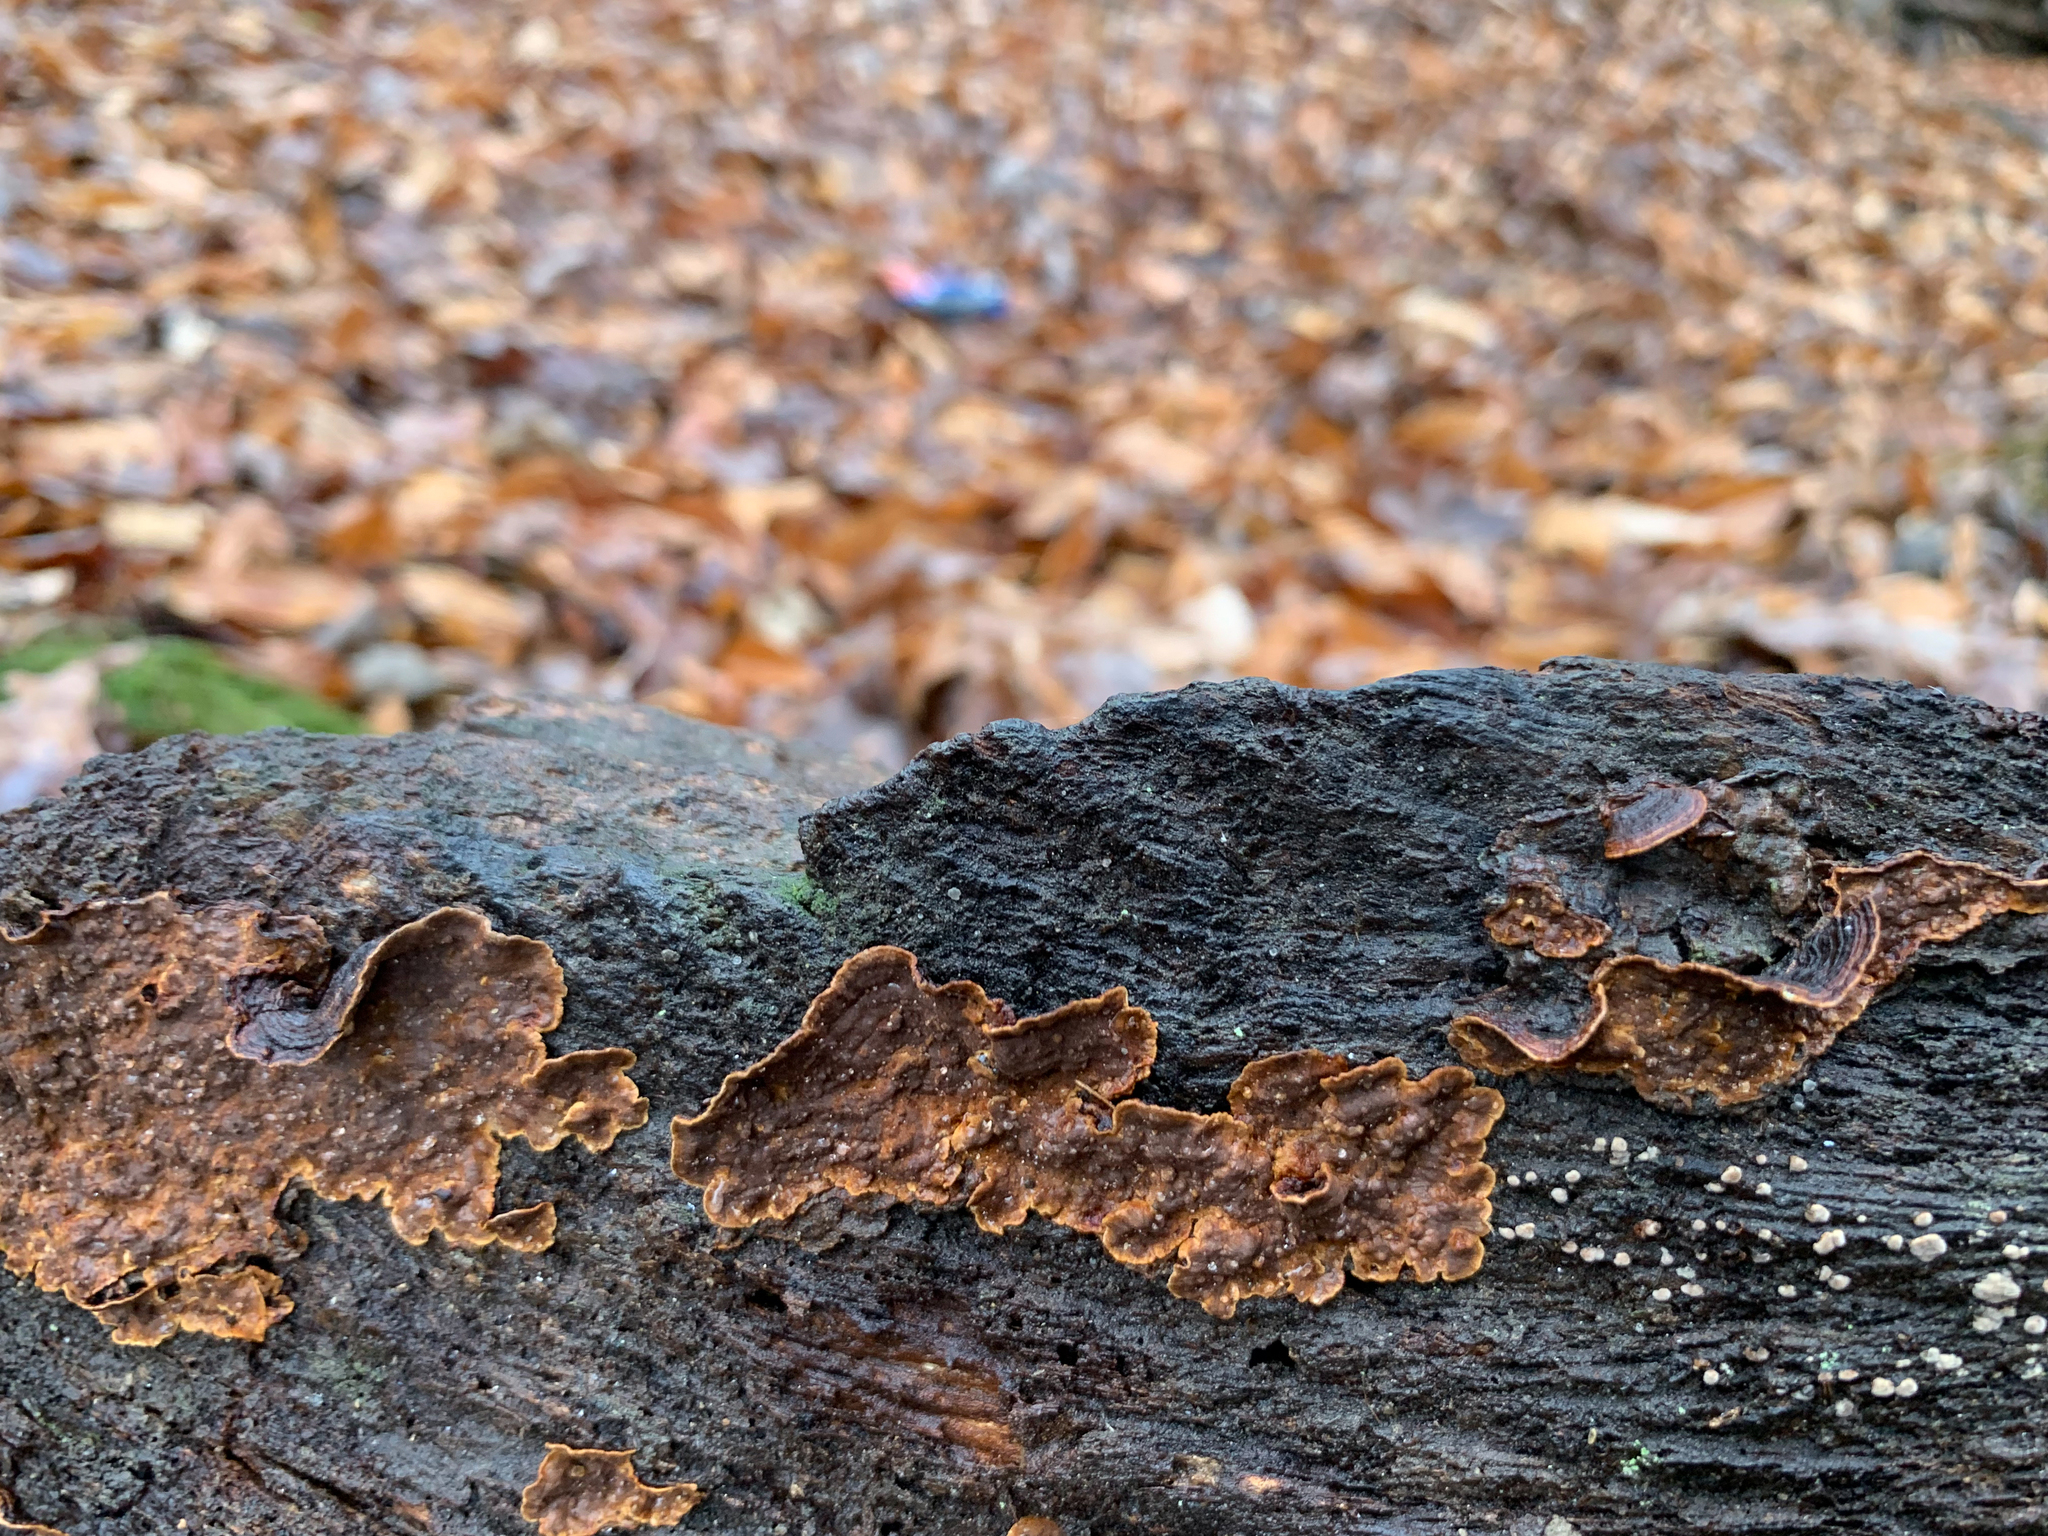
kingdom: Fungi
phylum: Basidiomycota
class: Agaricomycetes
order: Hymenochaetales
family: Hymenochaetaceae
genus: Hymenochaete
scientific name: Hymenochaete rubiginosa
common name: Oak curtain crust
